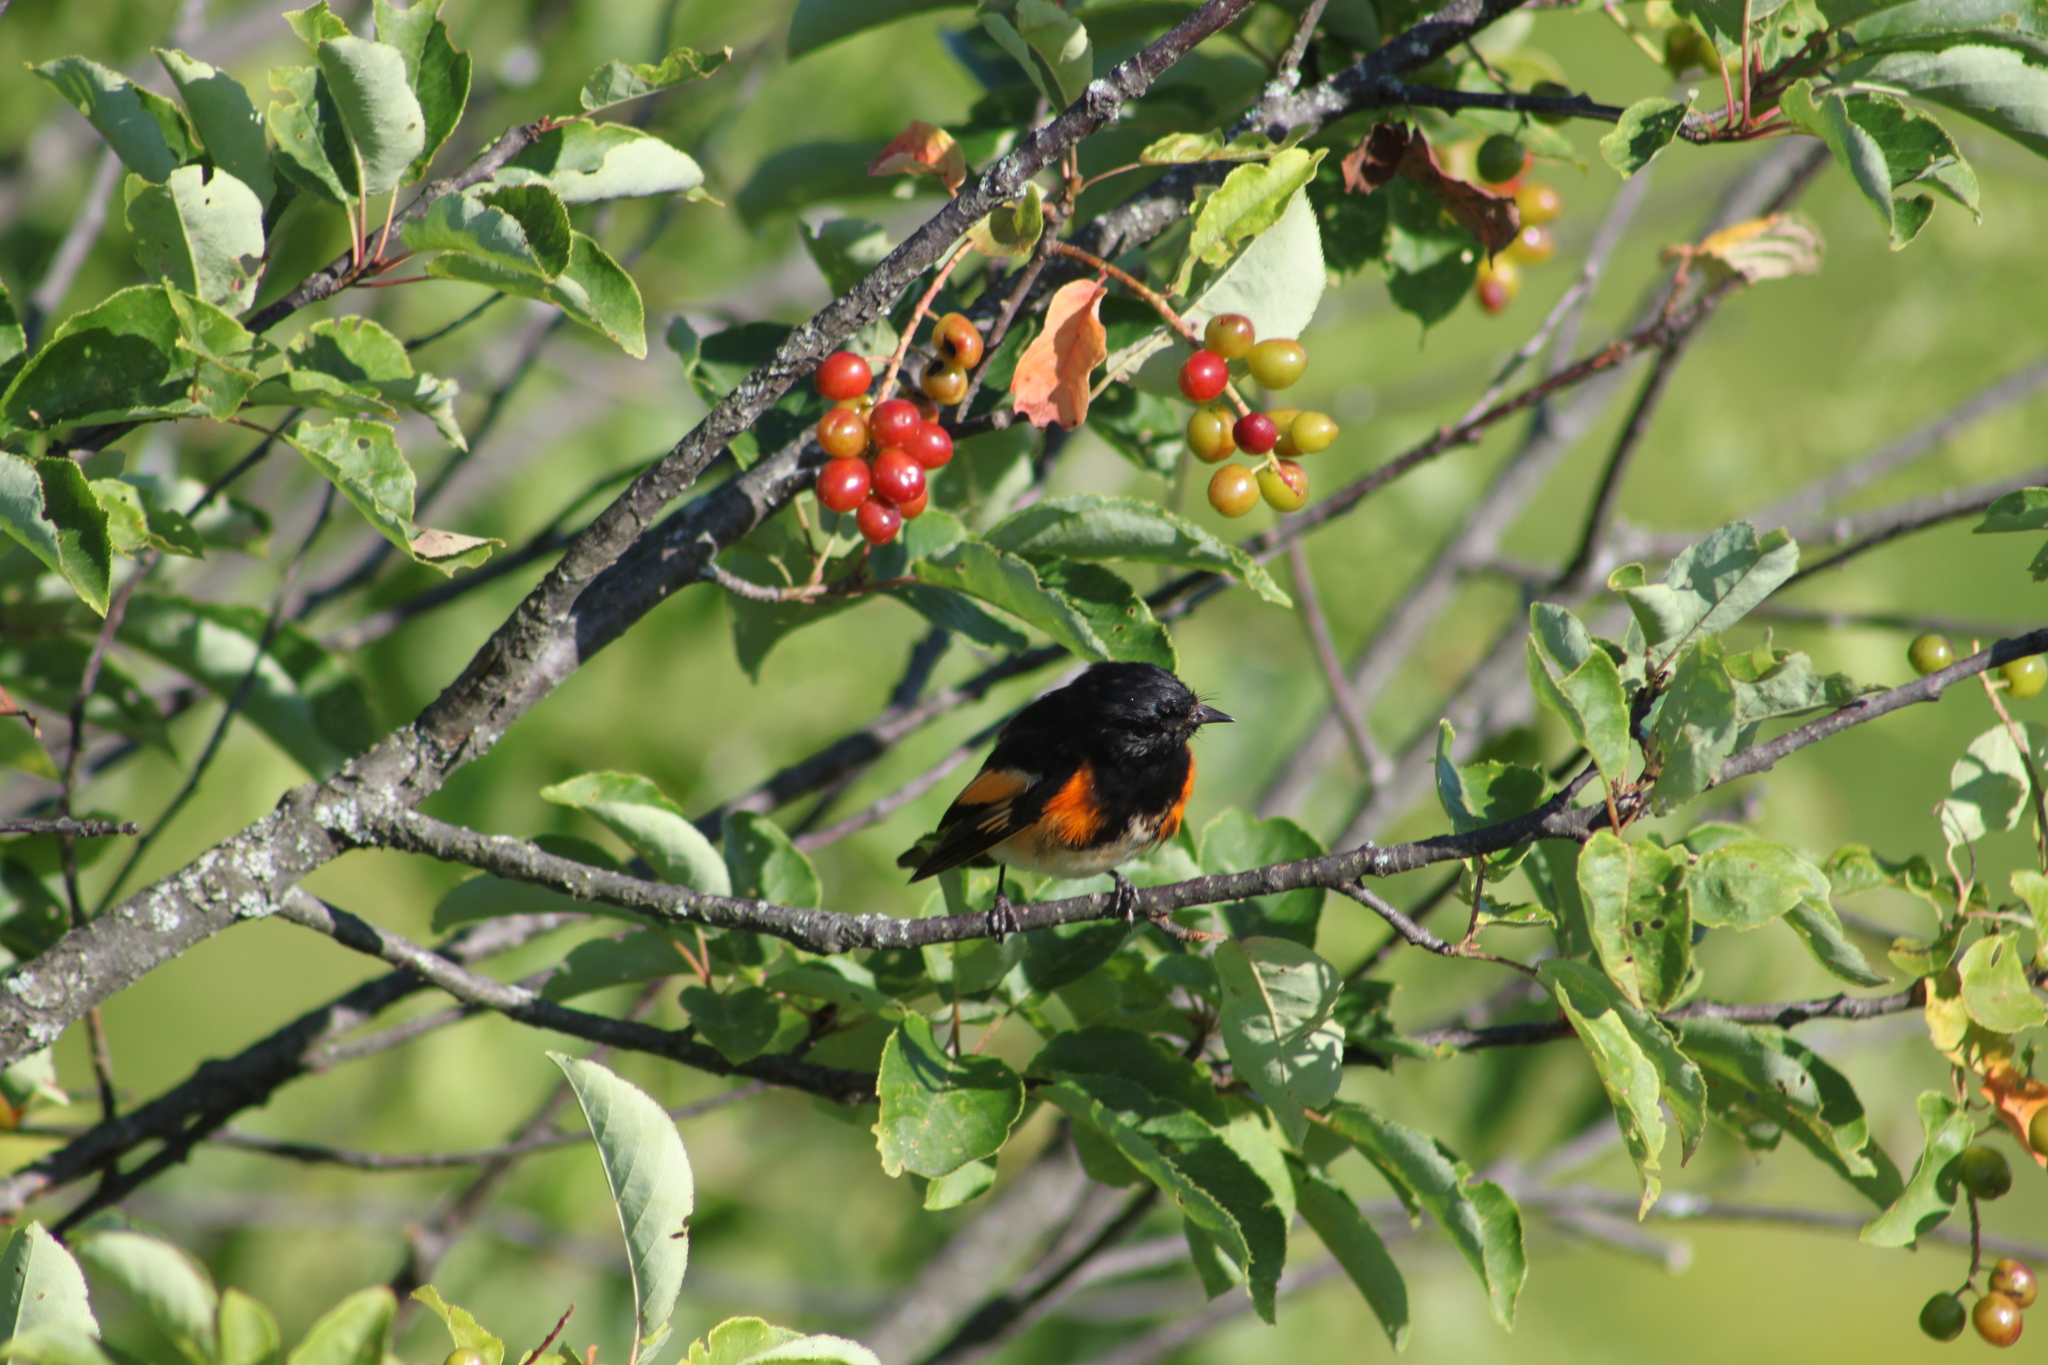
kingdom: Animalia
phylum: Chordata
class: Aves
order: Passeriformes
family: Parulidae
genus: Setophaga
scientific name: Setophaga ruticilla
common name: American redstart
